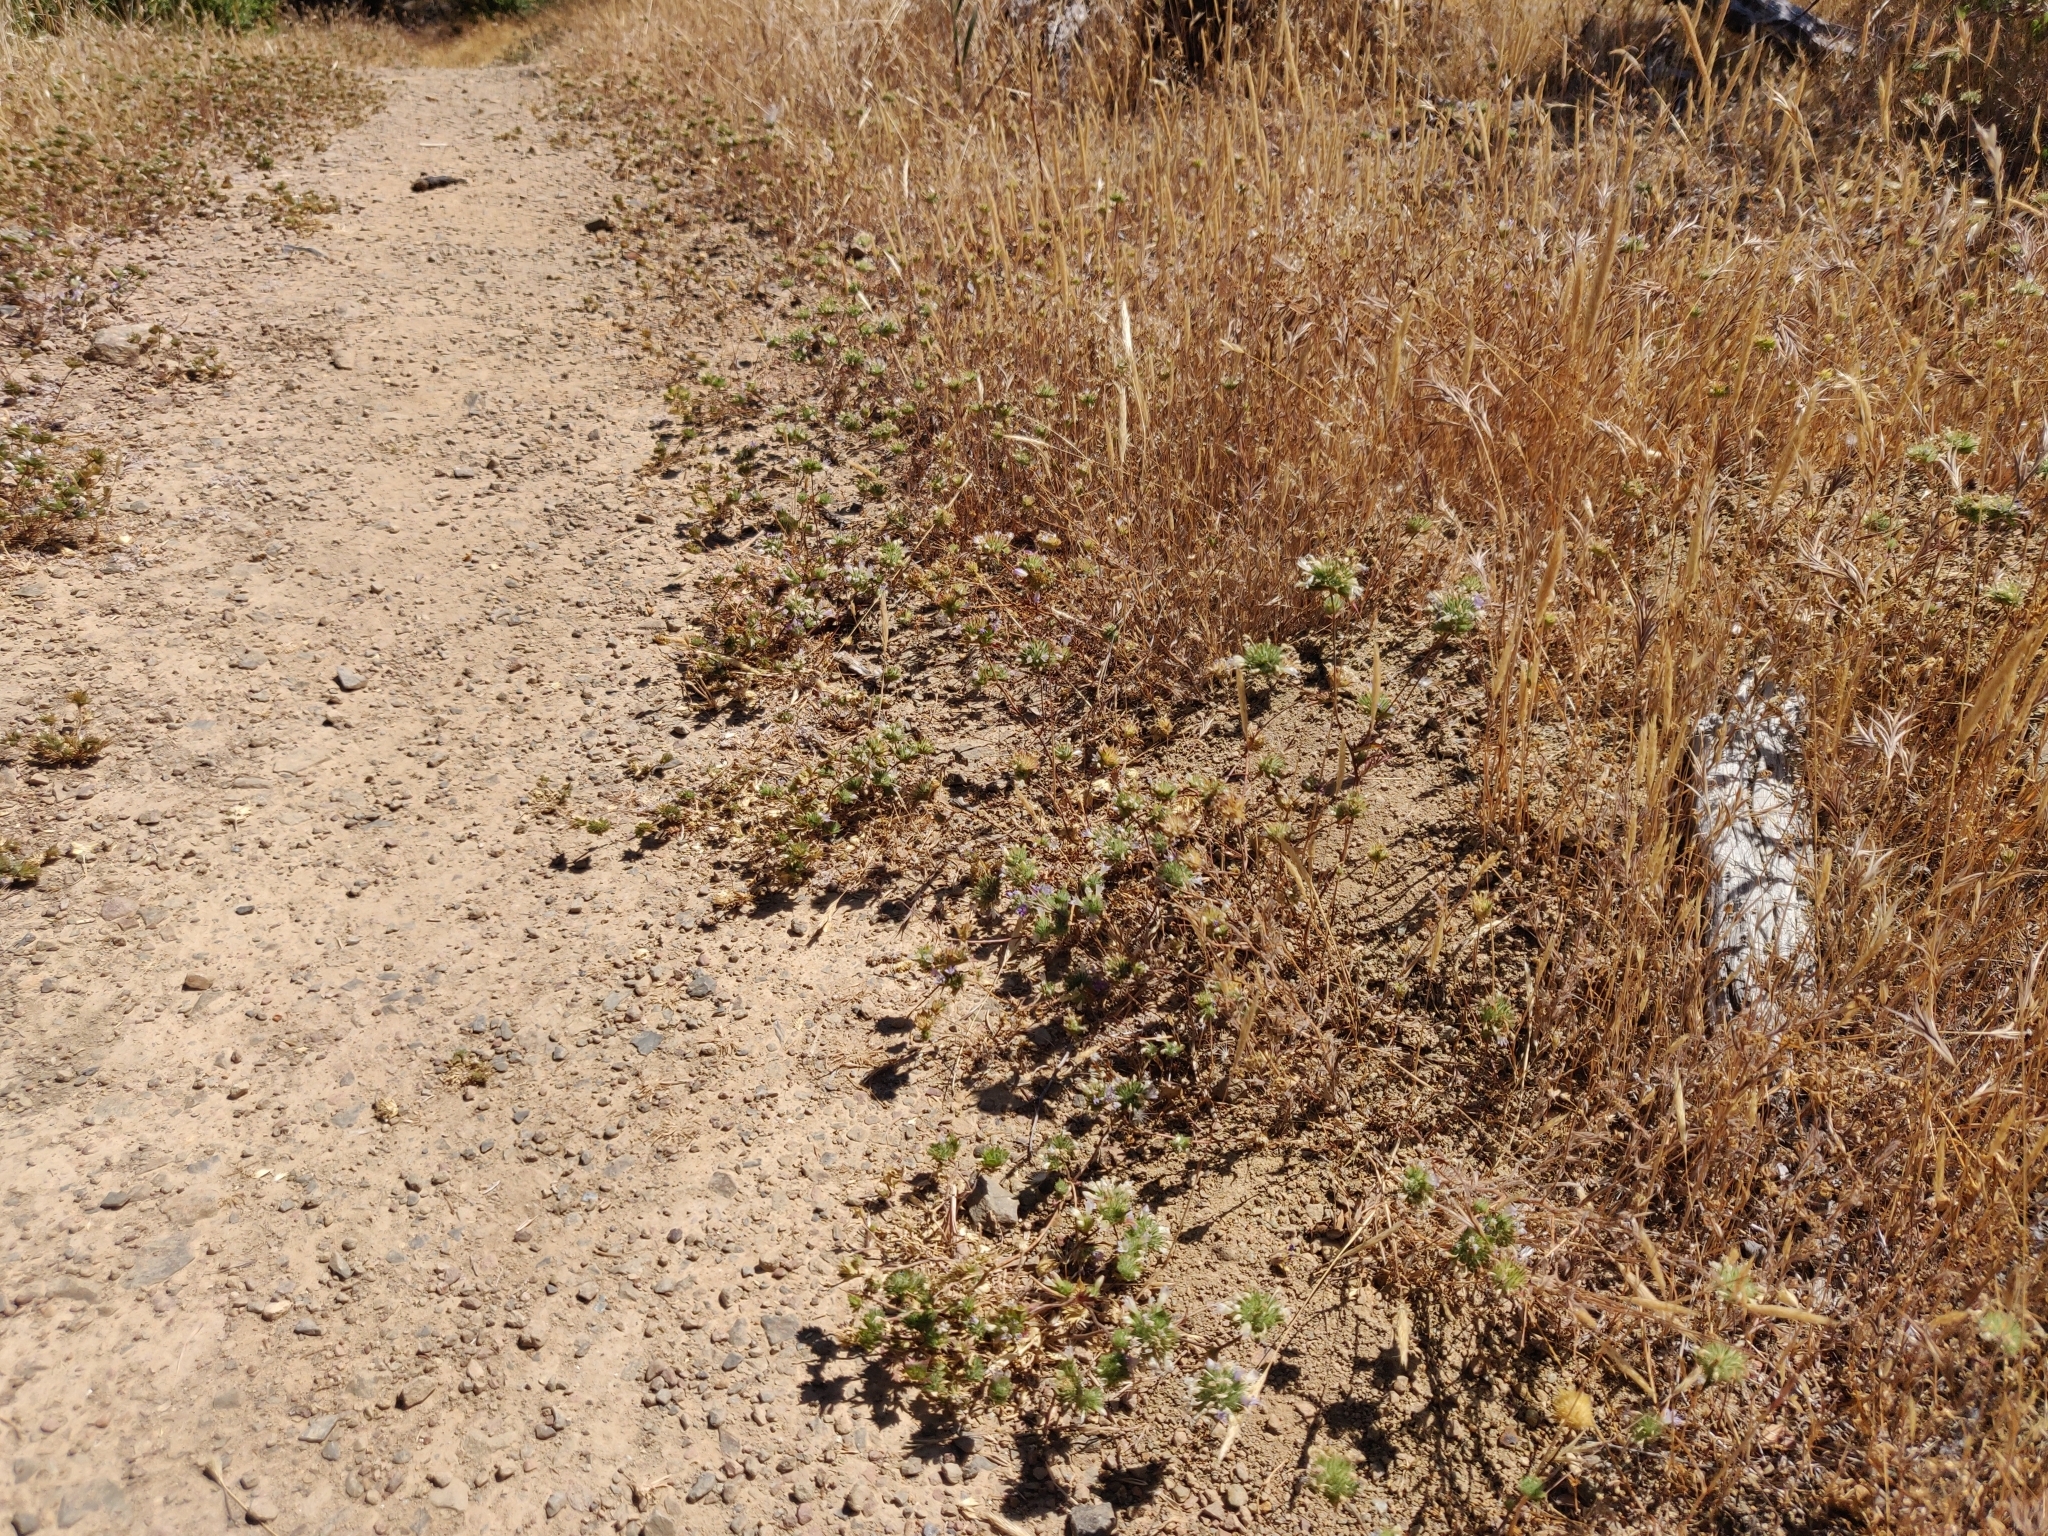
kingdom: Plantae
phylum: Tracheophyta
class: Magnoliopsida
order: Ericales
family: Polemoniaceae
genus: Navarretia
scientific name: Navarretia heterodoxa
